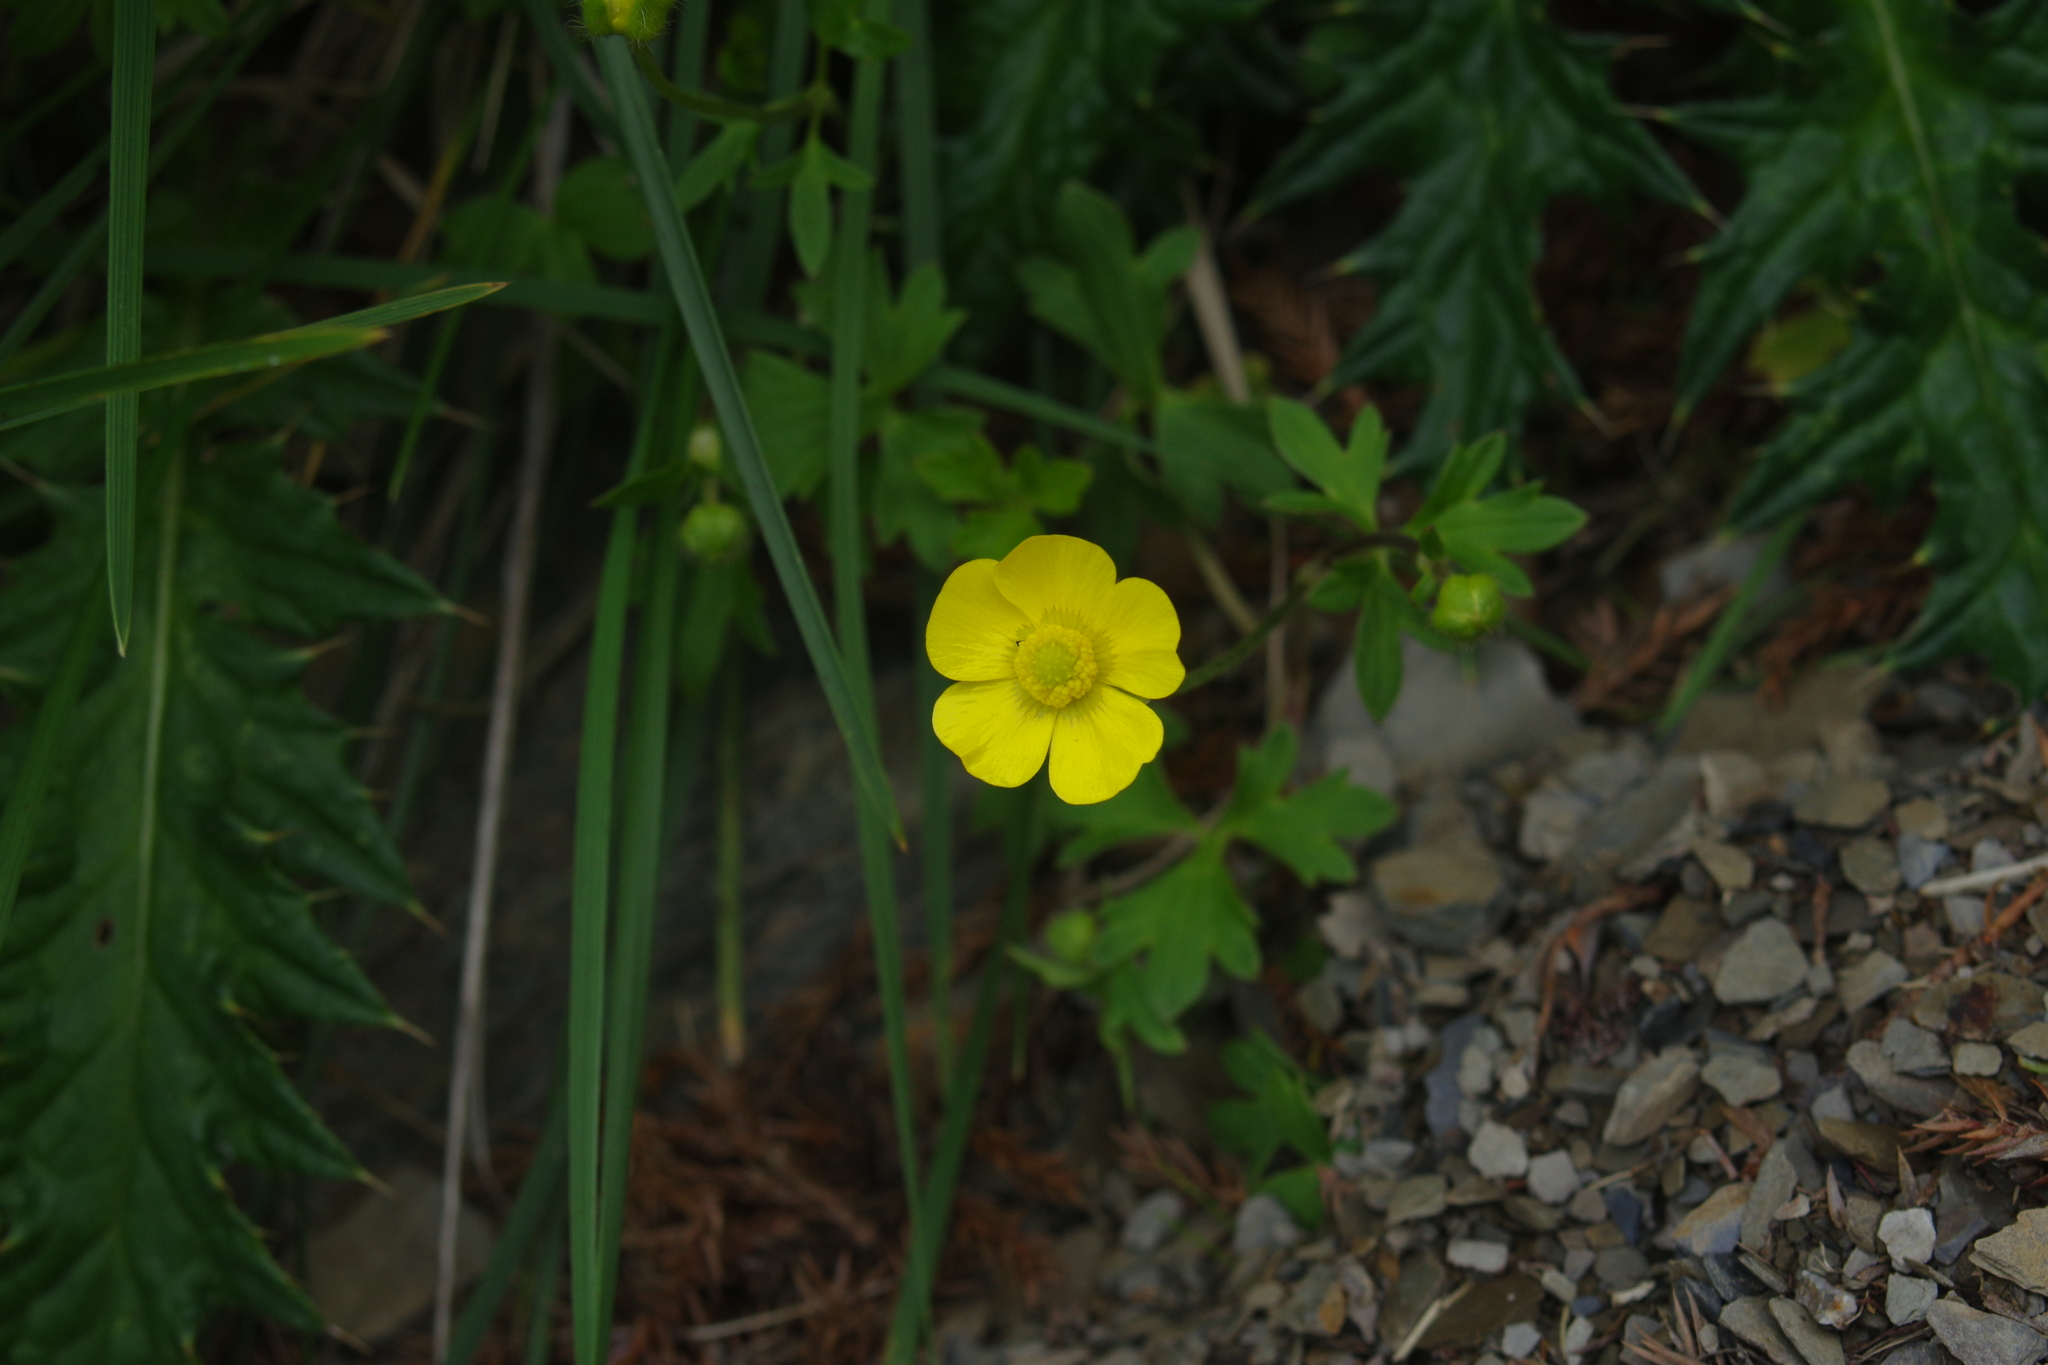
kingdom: Plantae
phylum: Tracheophyta
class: Magnoliopsida
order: Ranunculales
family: Ranunculaceae
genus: Ranunculus
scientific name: Ranunculus formosa-montanus
